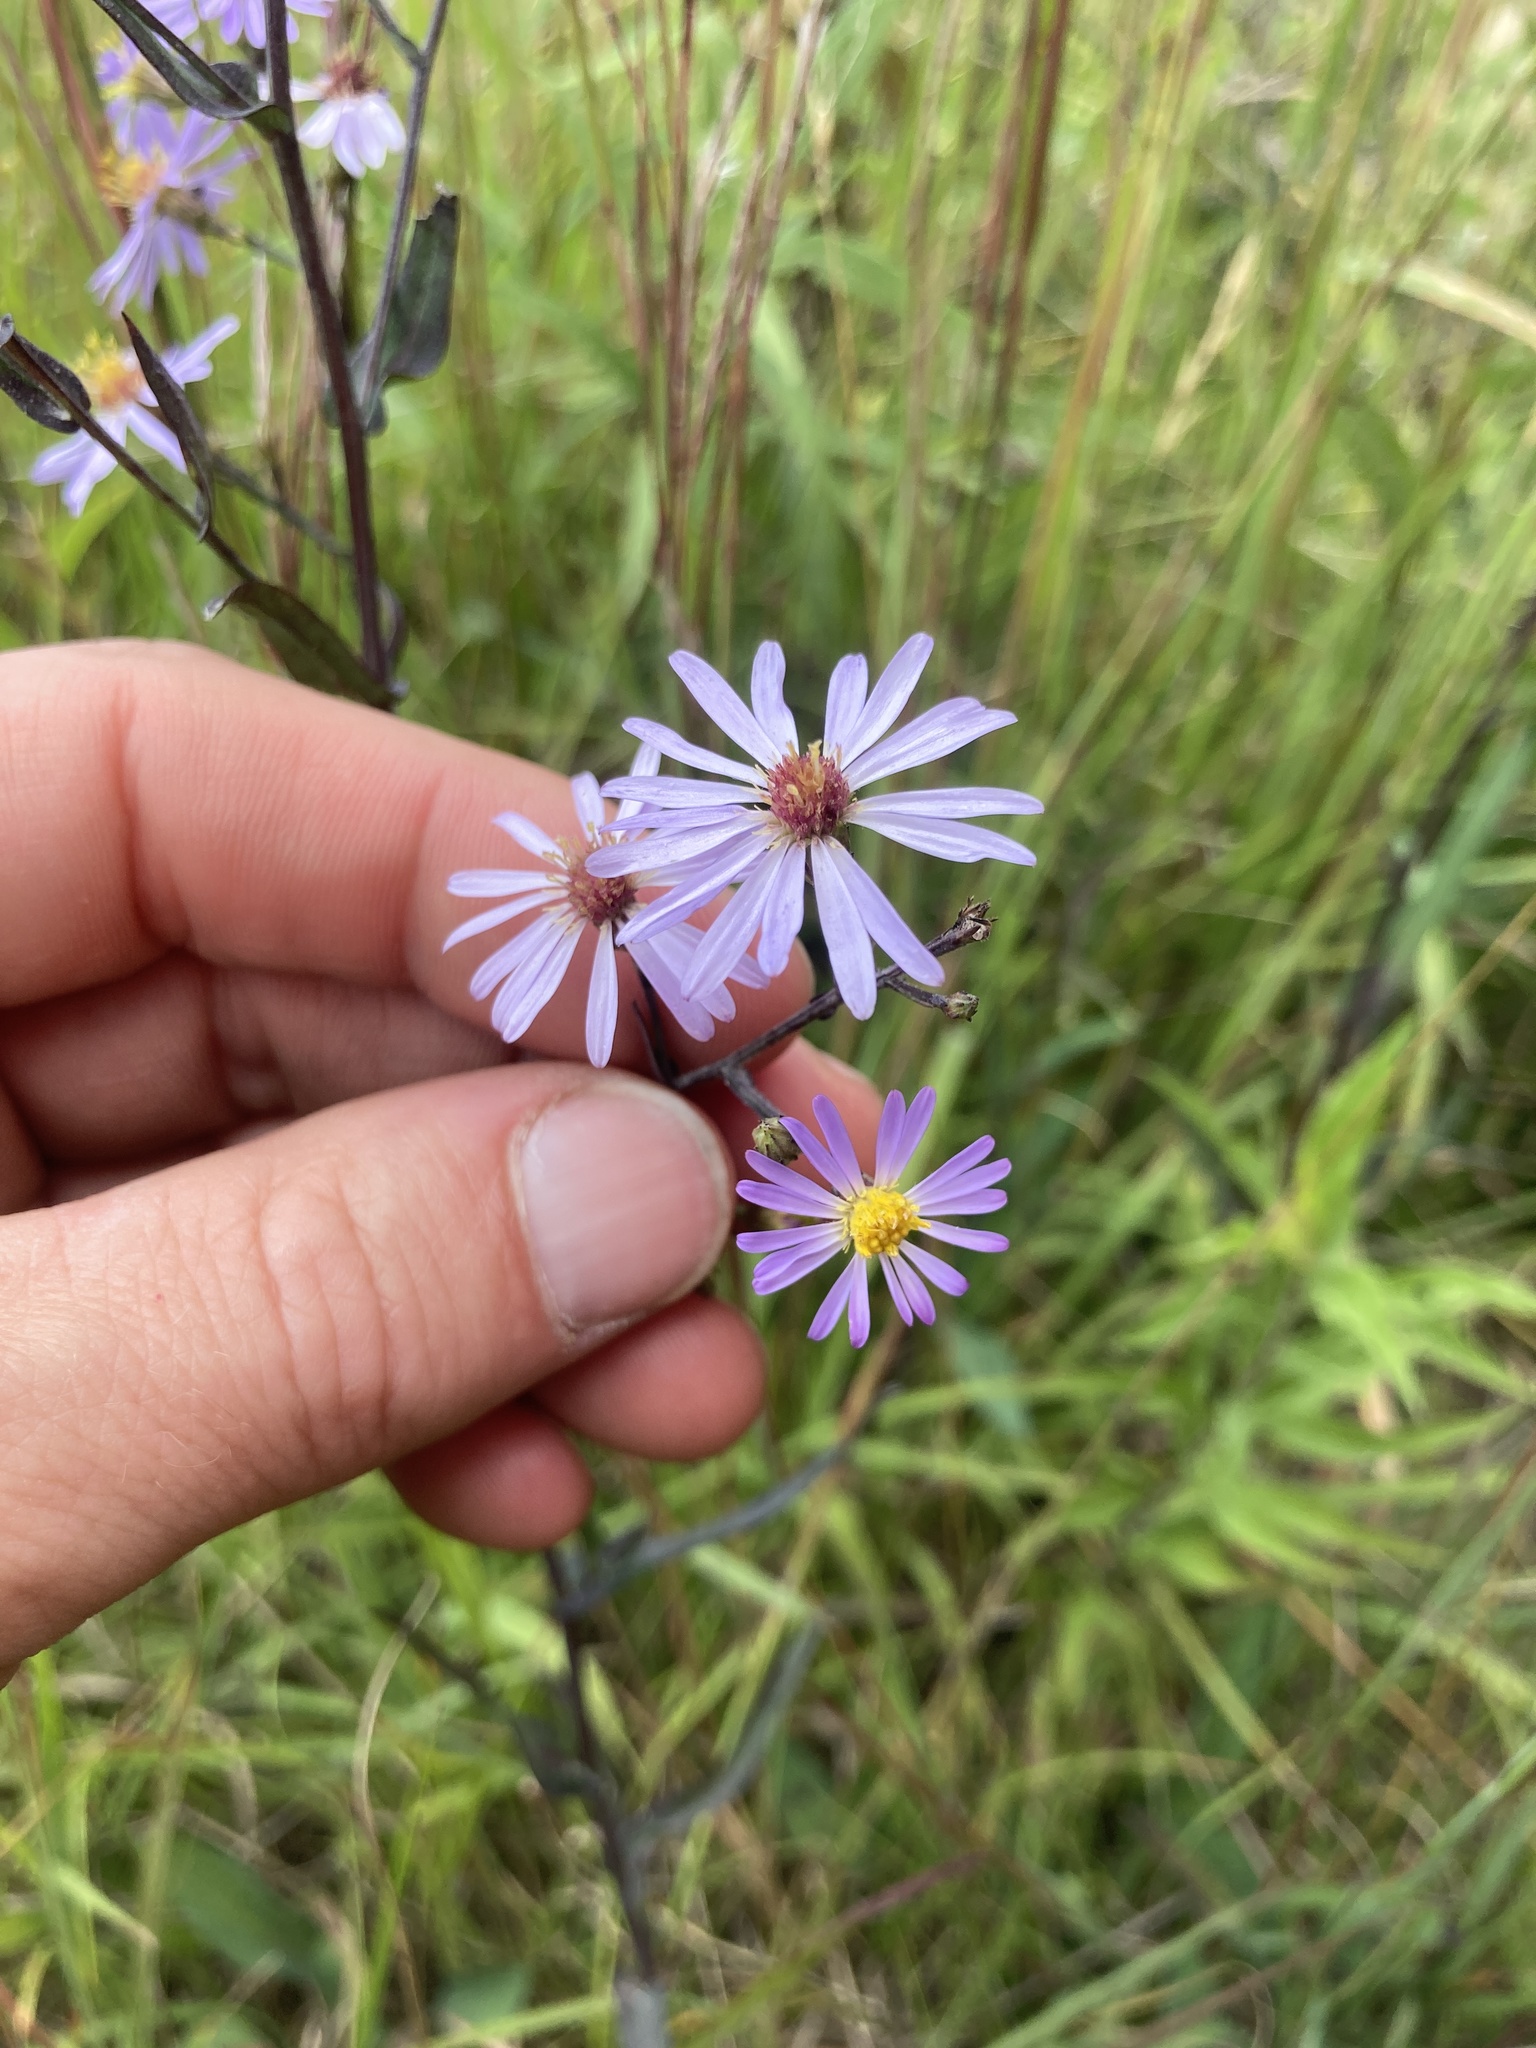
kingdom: Plantae
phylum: Tracheophyta
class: Magnoliopsida
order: Asterales
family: Asteraceae
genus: Symphyotrichum
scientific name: Symphyotrichum laeve
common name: Glaucous aster
